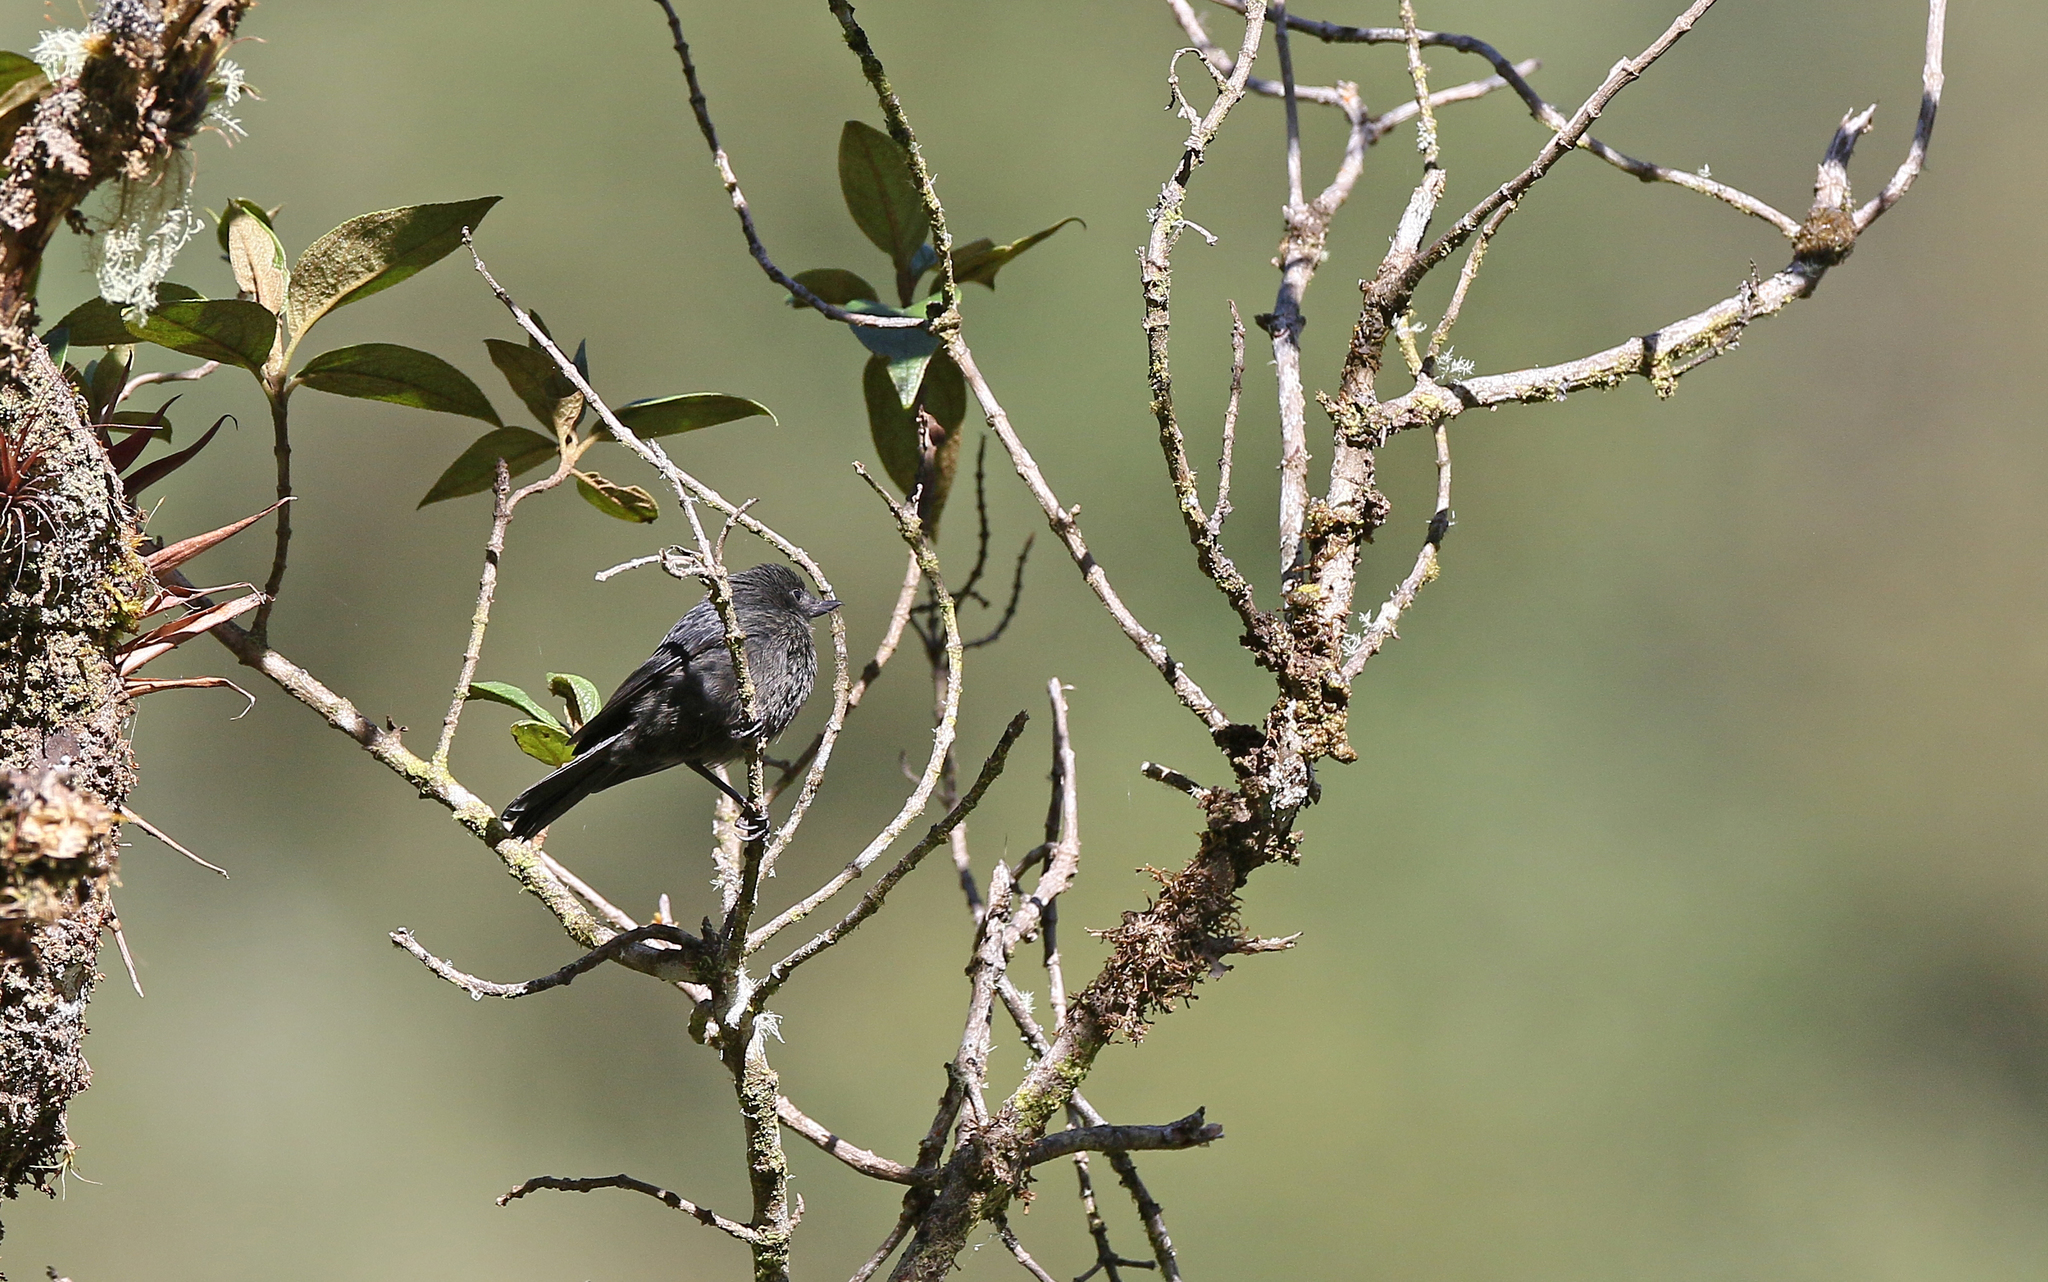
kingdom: Animalia
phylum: Chordata
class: Aves
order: Passeriformes
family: Thraupidae
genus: Diglossa
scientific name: Diglossa lafresnayii
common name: Glossy flowerpiercer
